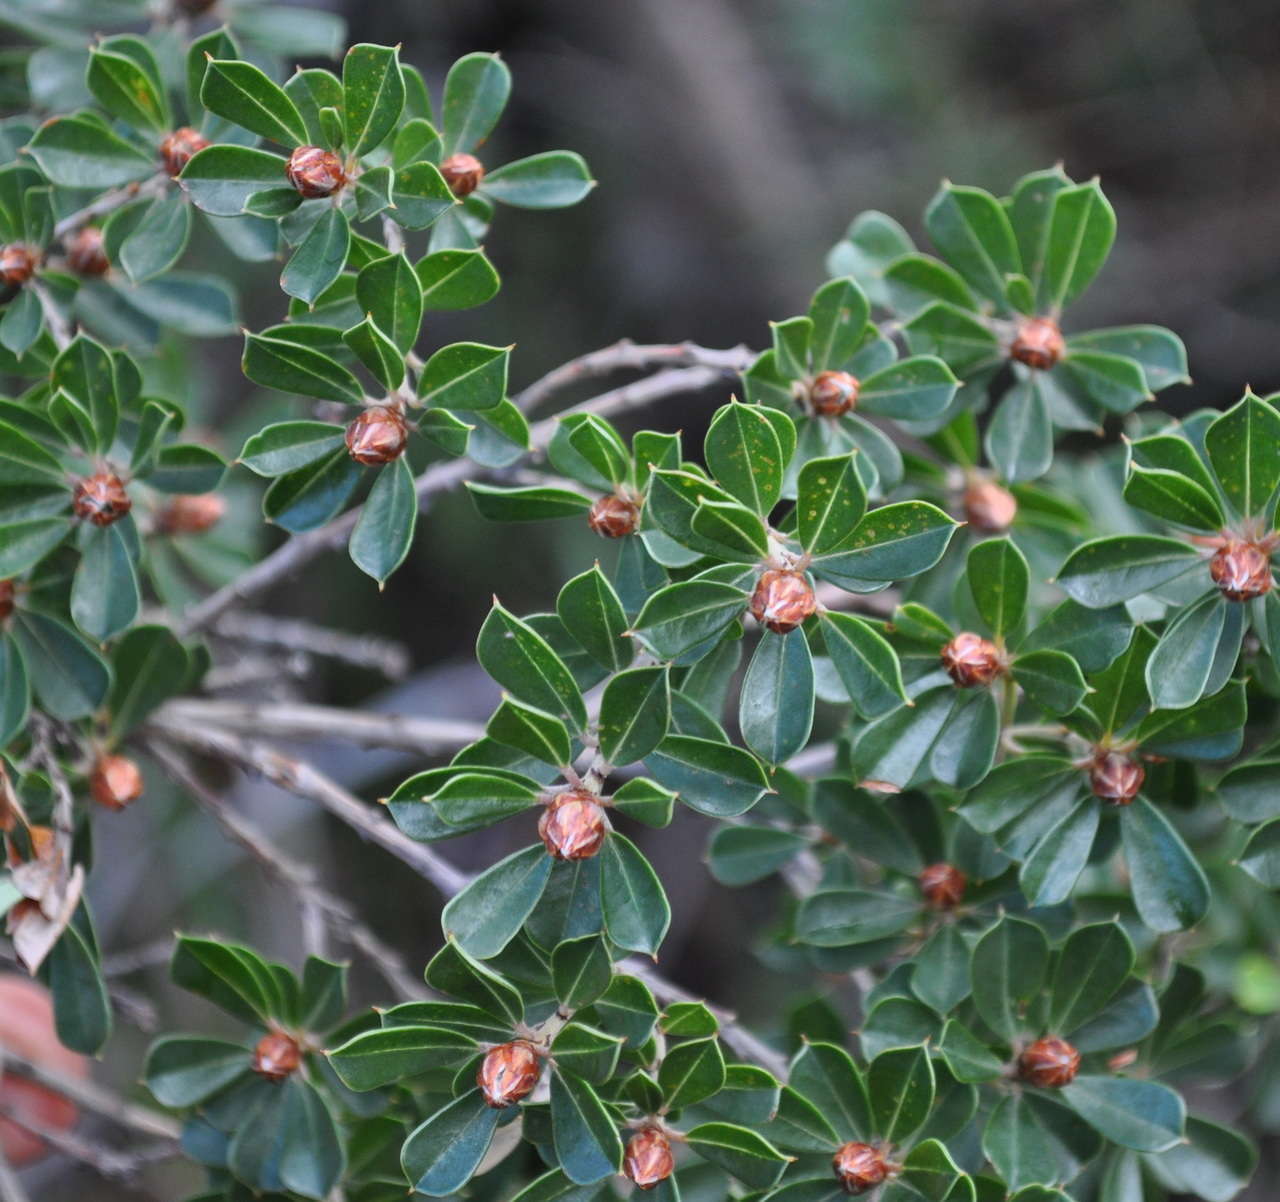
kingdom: Plantae
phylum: Tracheophyta
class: Magnoliopsida
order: Fabales
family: Fabaceae
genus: Pultenaea
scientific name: Pultenaea daphnoides
